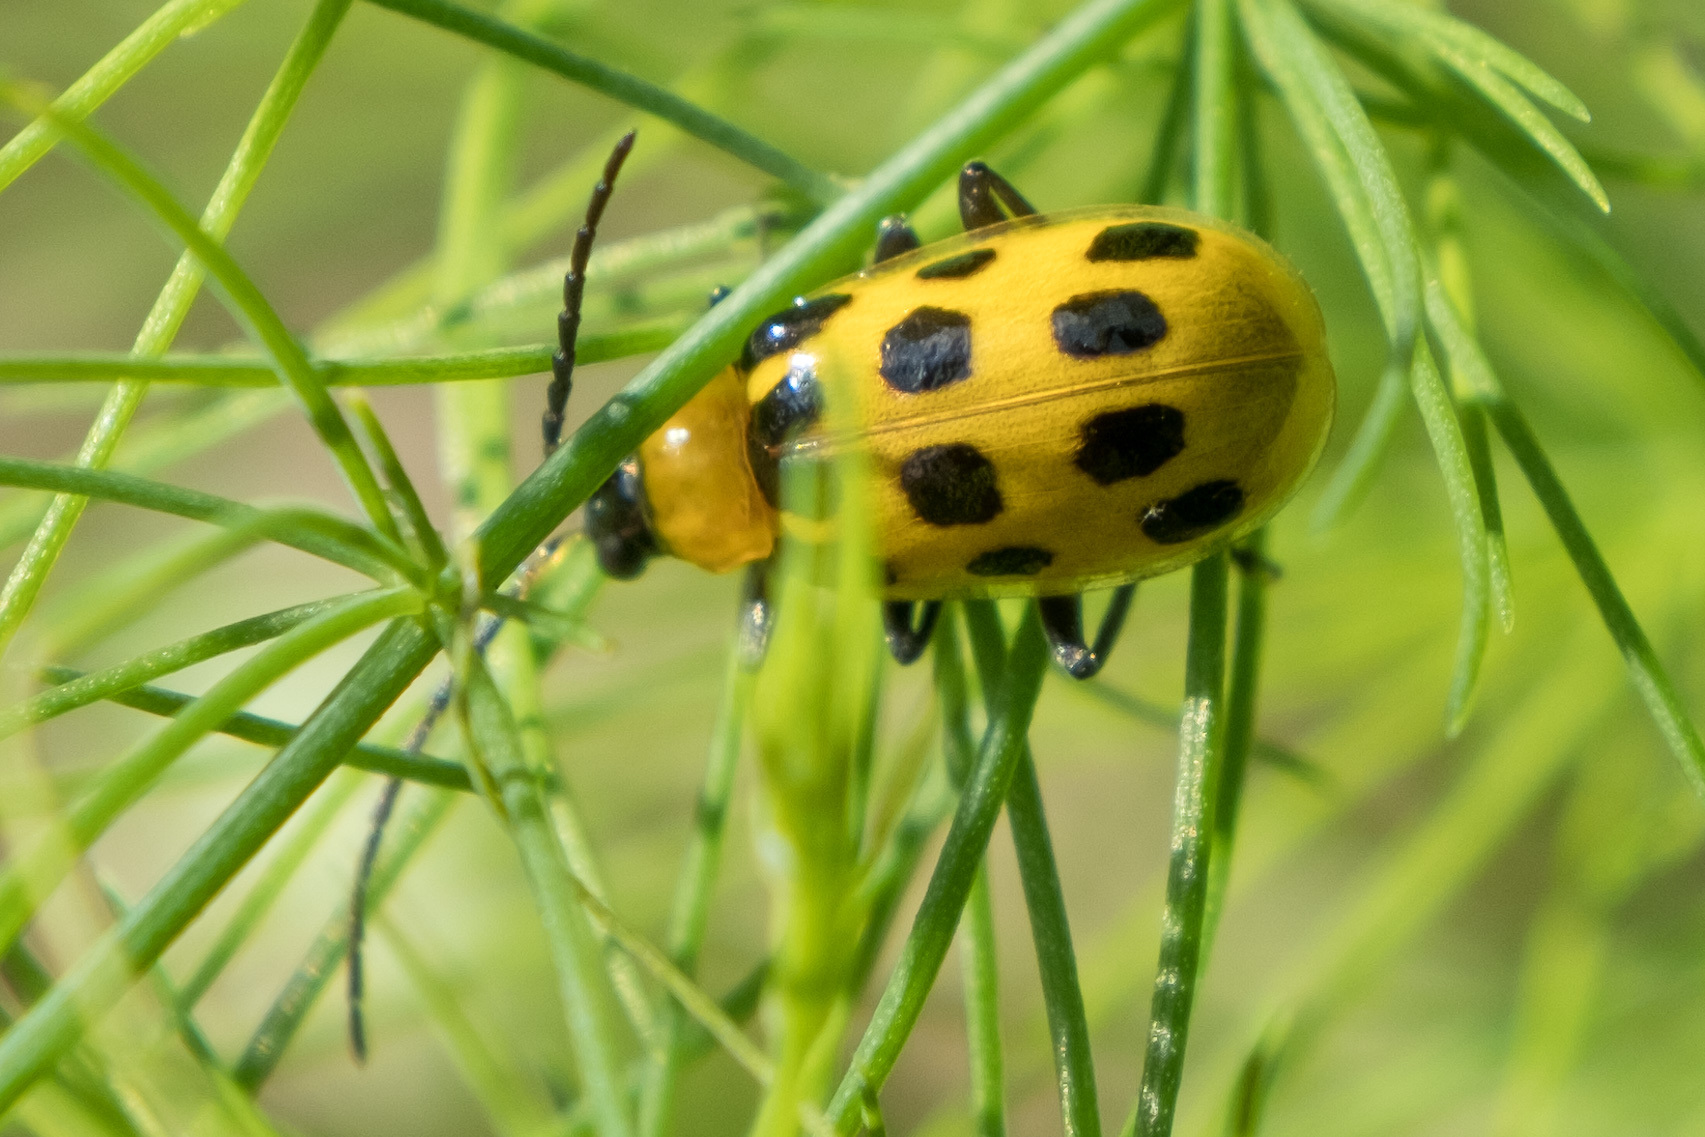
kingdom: Animalia
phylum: Arthropoda
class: Insecta
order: Coleoptera
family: Chrysomelidae
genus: Diabrotica
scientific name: Diabrotica undecimpunctata
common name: Spotted cucumber beetle
